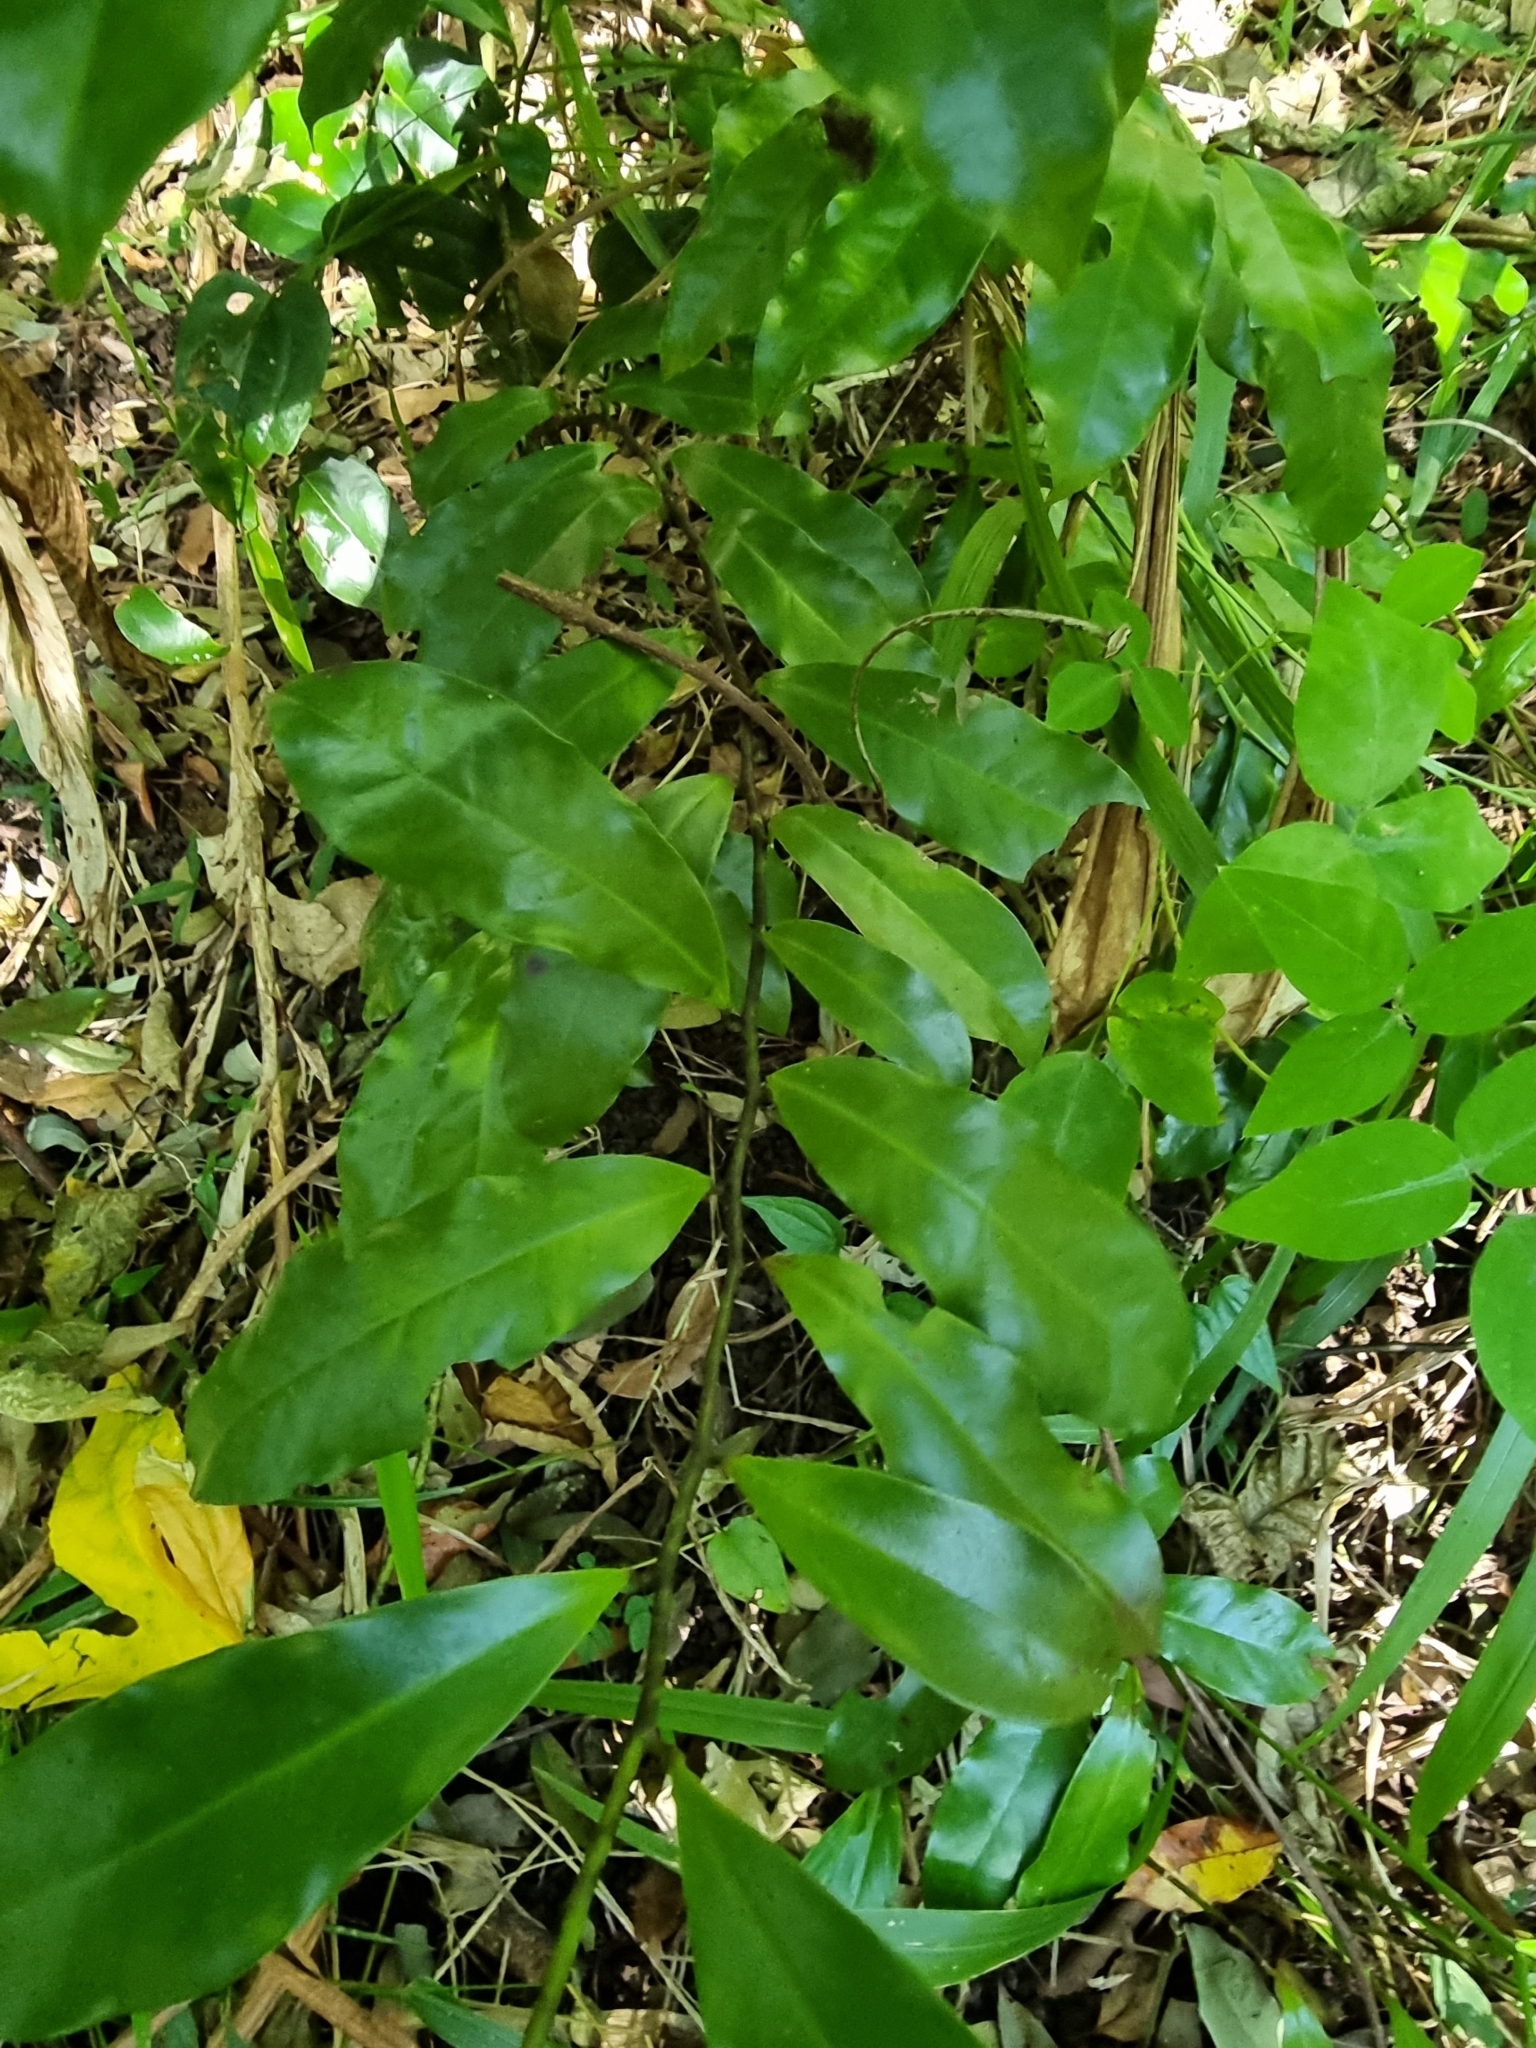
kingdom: Plantae
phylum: Tracheophyta
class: Magnoliopsida
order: Magnoliales
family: Eupomatiaceae
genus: Eupomatia
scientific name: Eupomatia laurina
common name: Bolwarra
